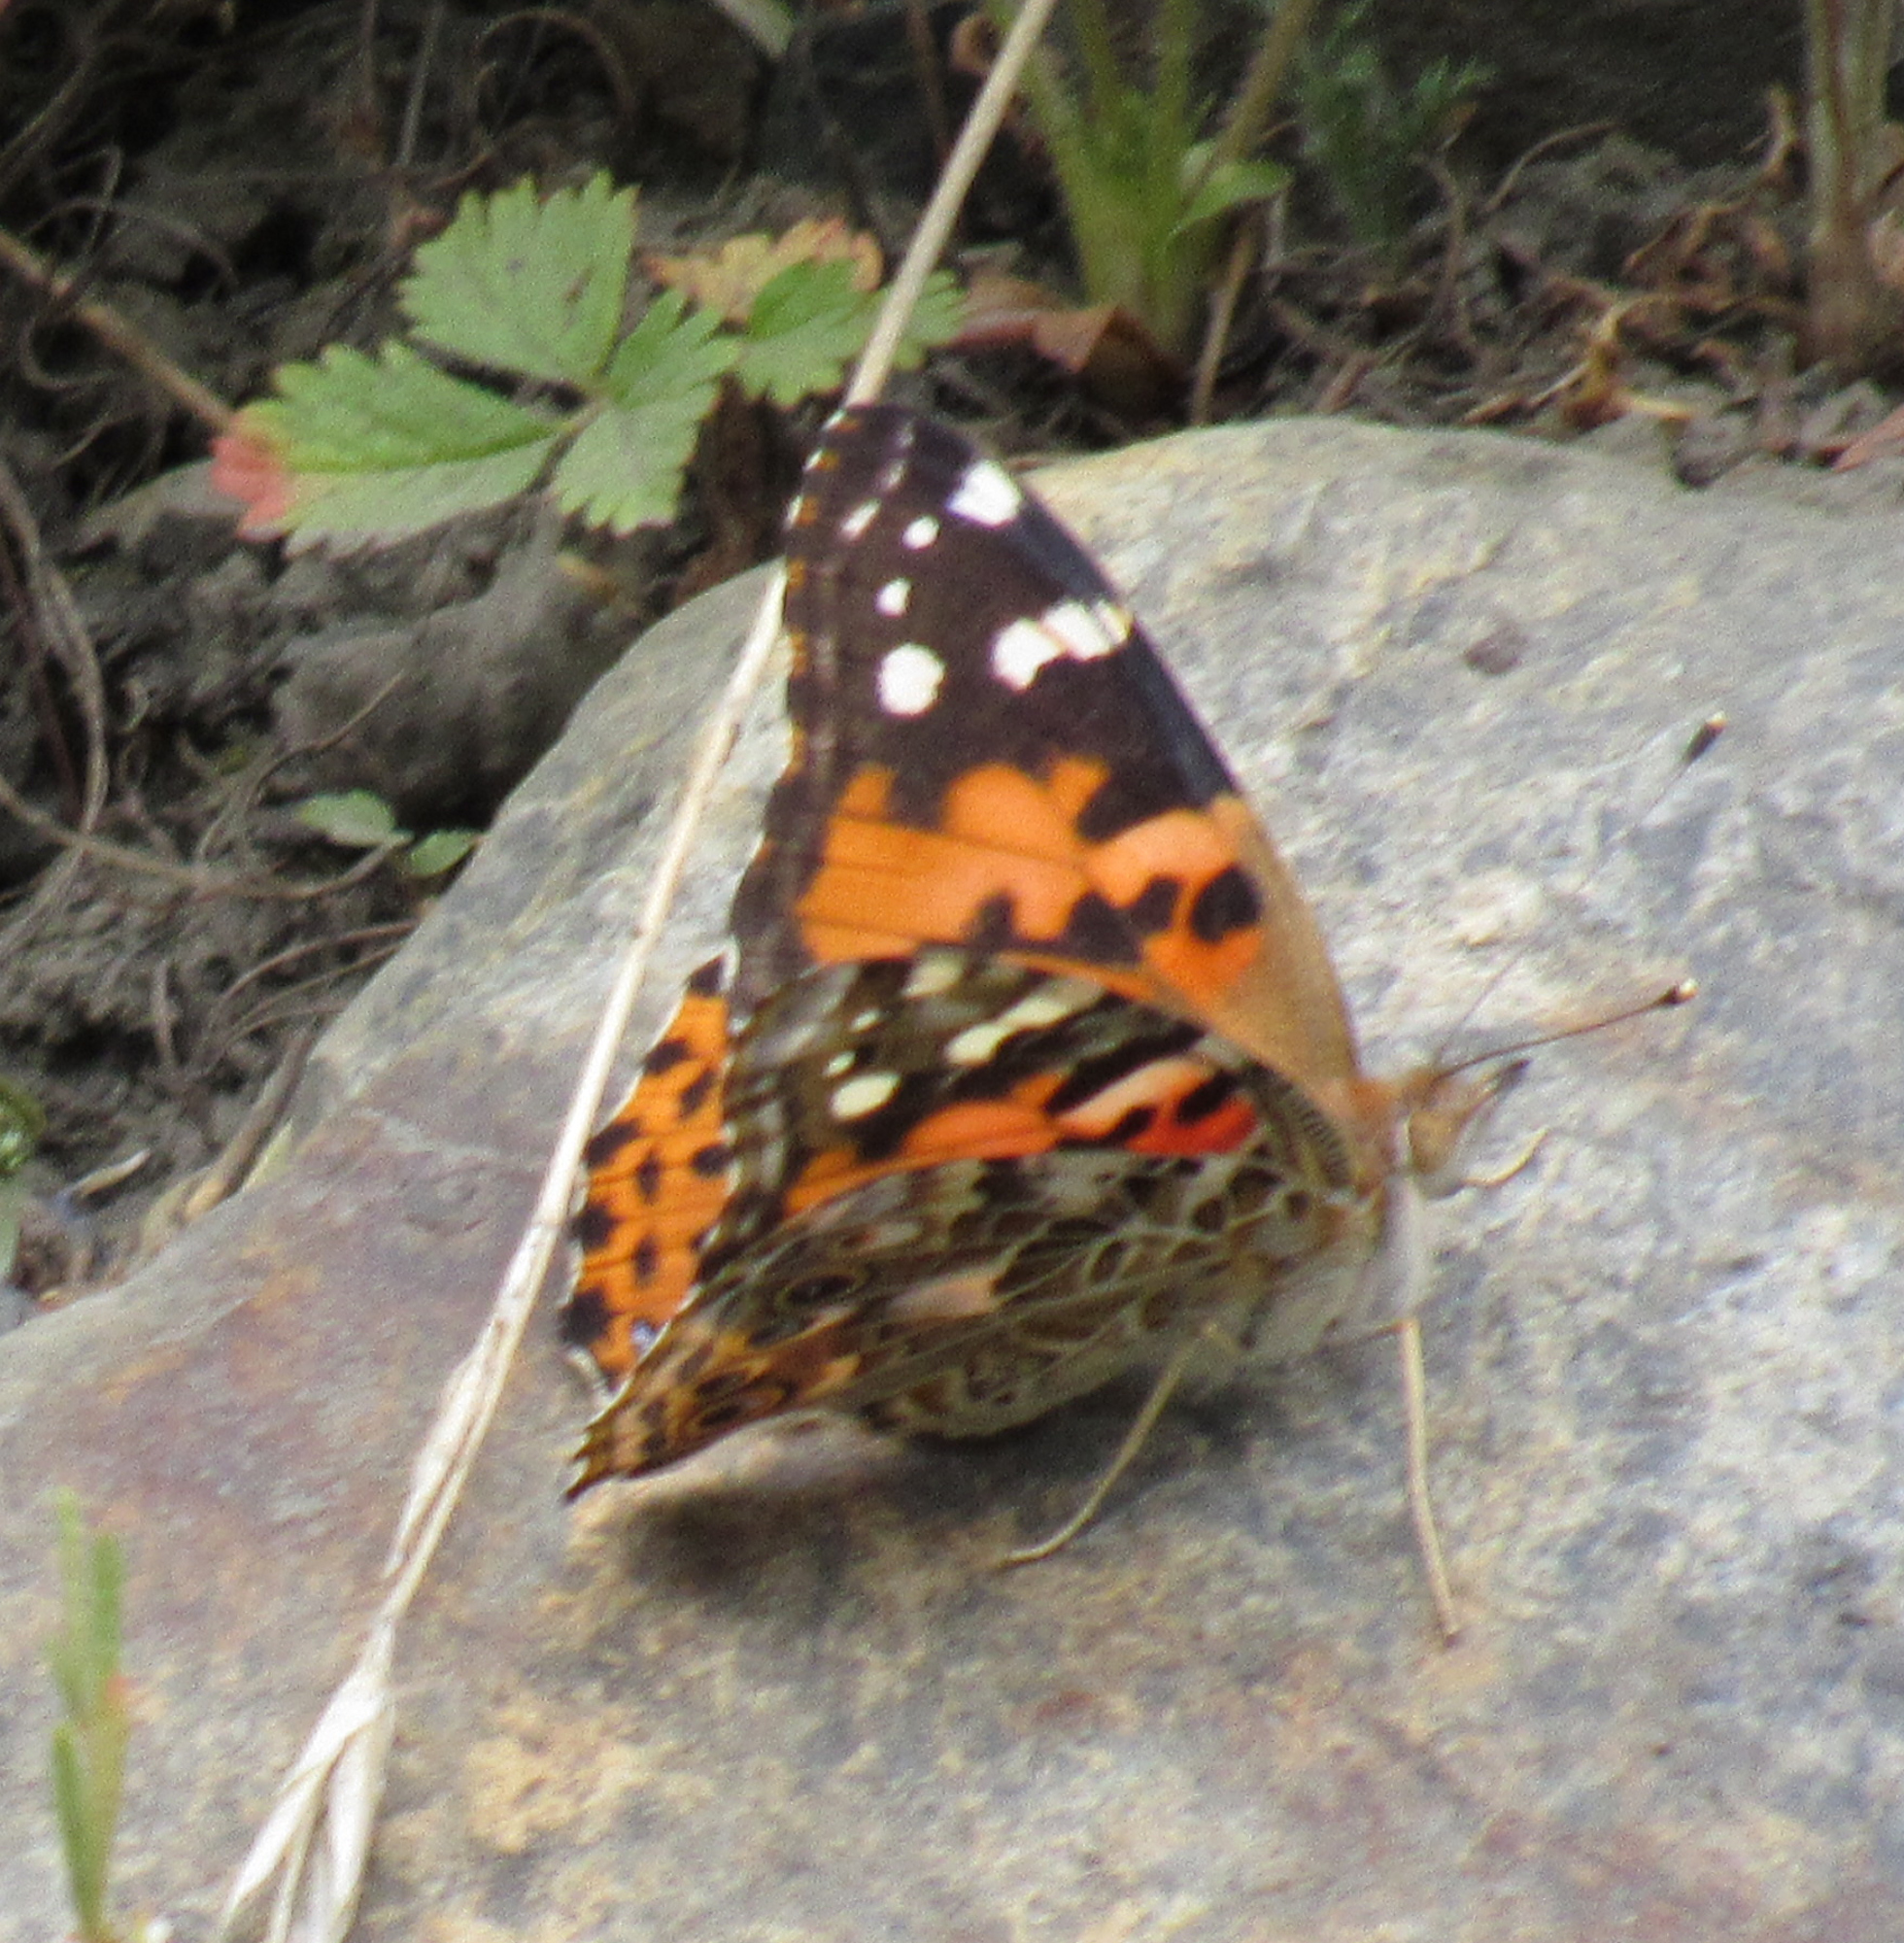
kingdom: Animalia
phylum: Arthropoda
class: Insecta
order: Lepidoptera
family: Nymphalidae
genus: Vanessa
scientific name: Vanessa cardui
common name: Painted lady
